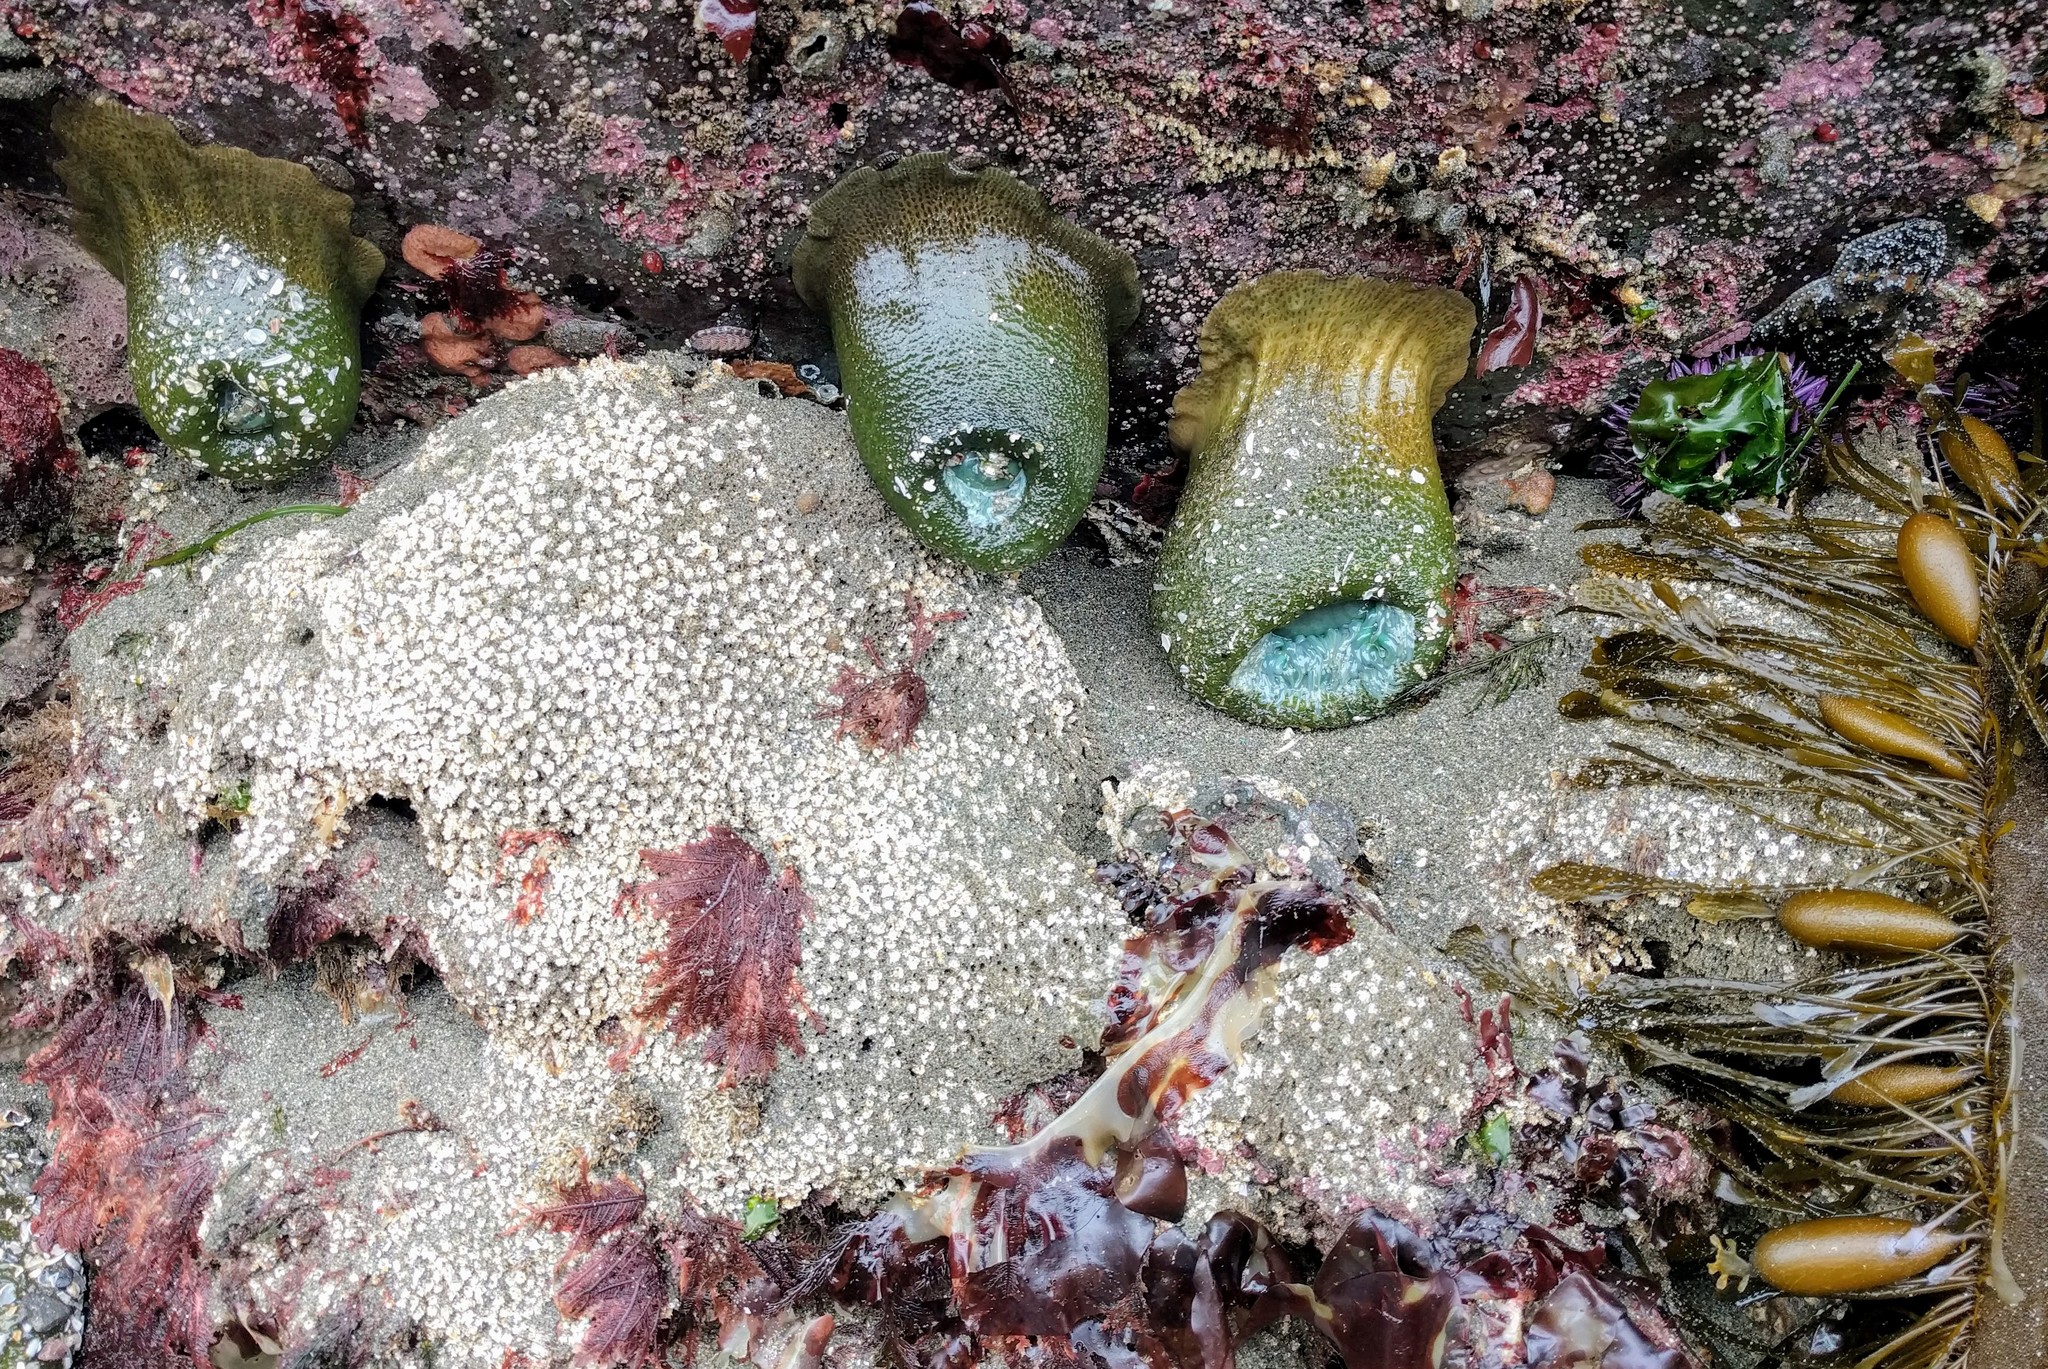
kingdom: Animalia
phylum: Cnidaria
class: Anthozoa
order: Actiniaria
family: Actiniidae
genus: Anthopleura
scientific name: Anthopleura xanthogrammica
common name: Giant green anemone
